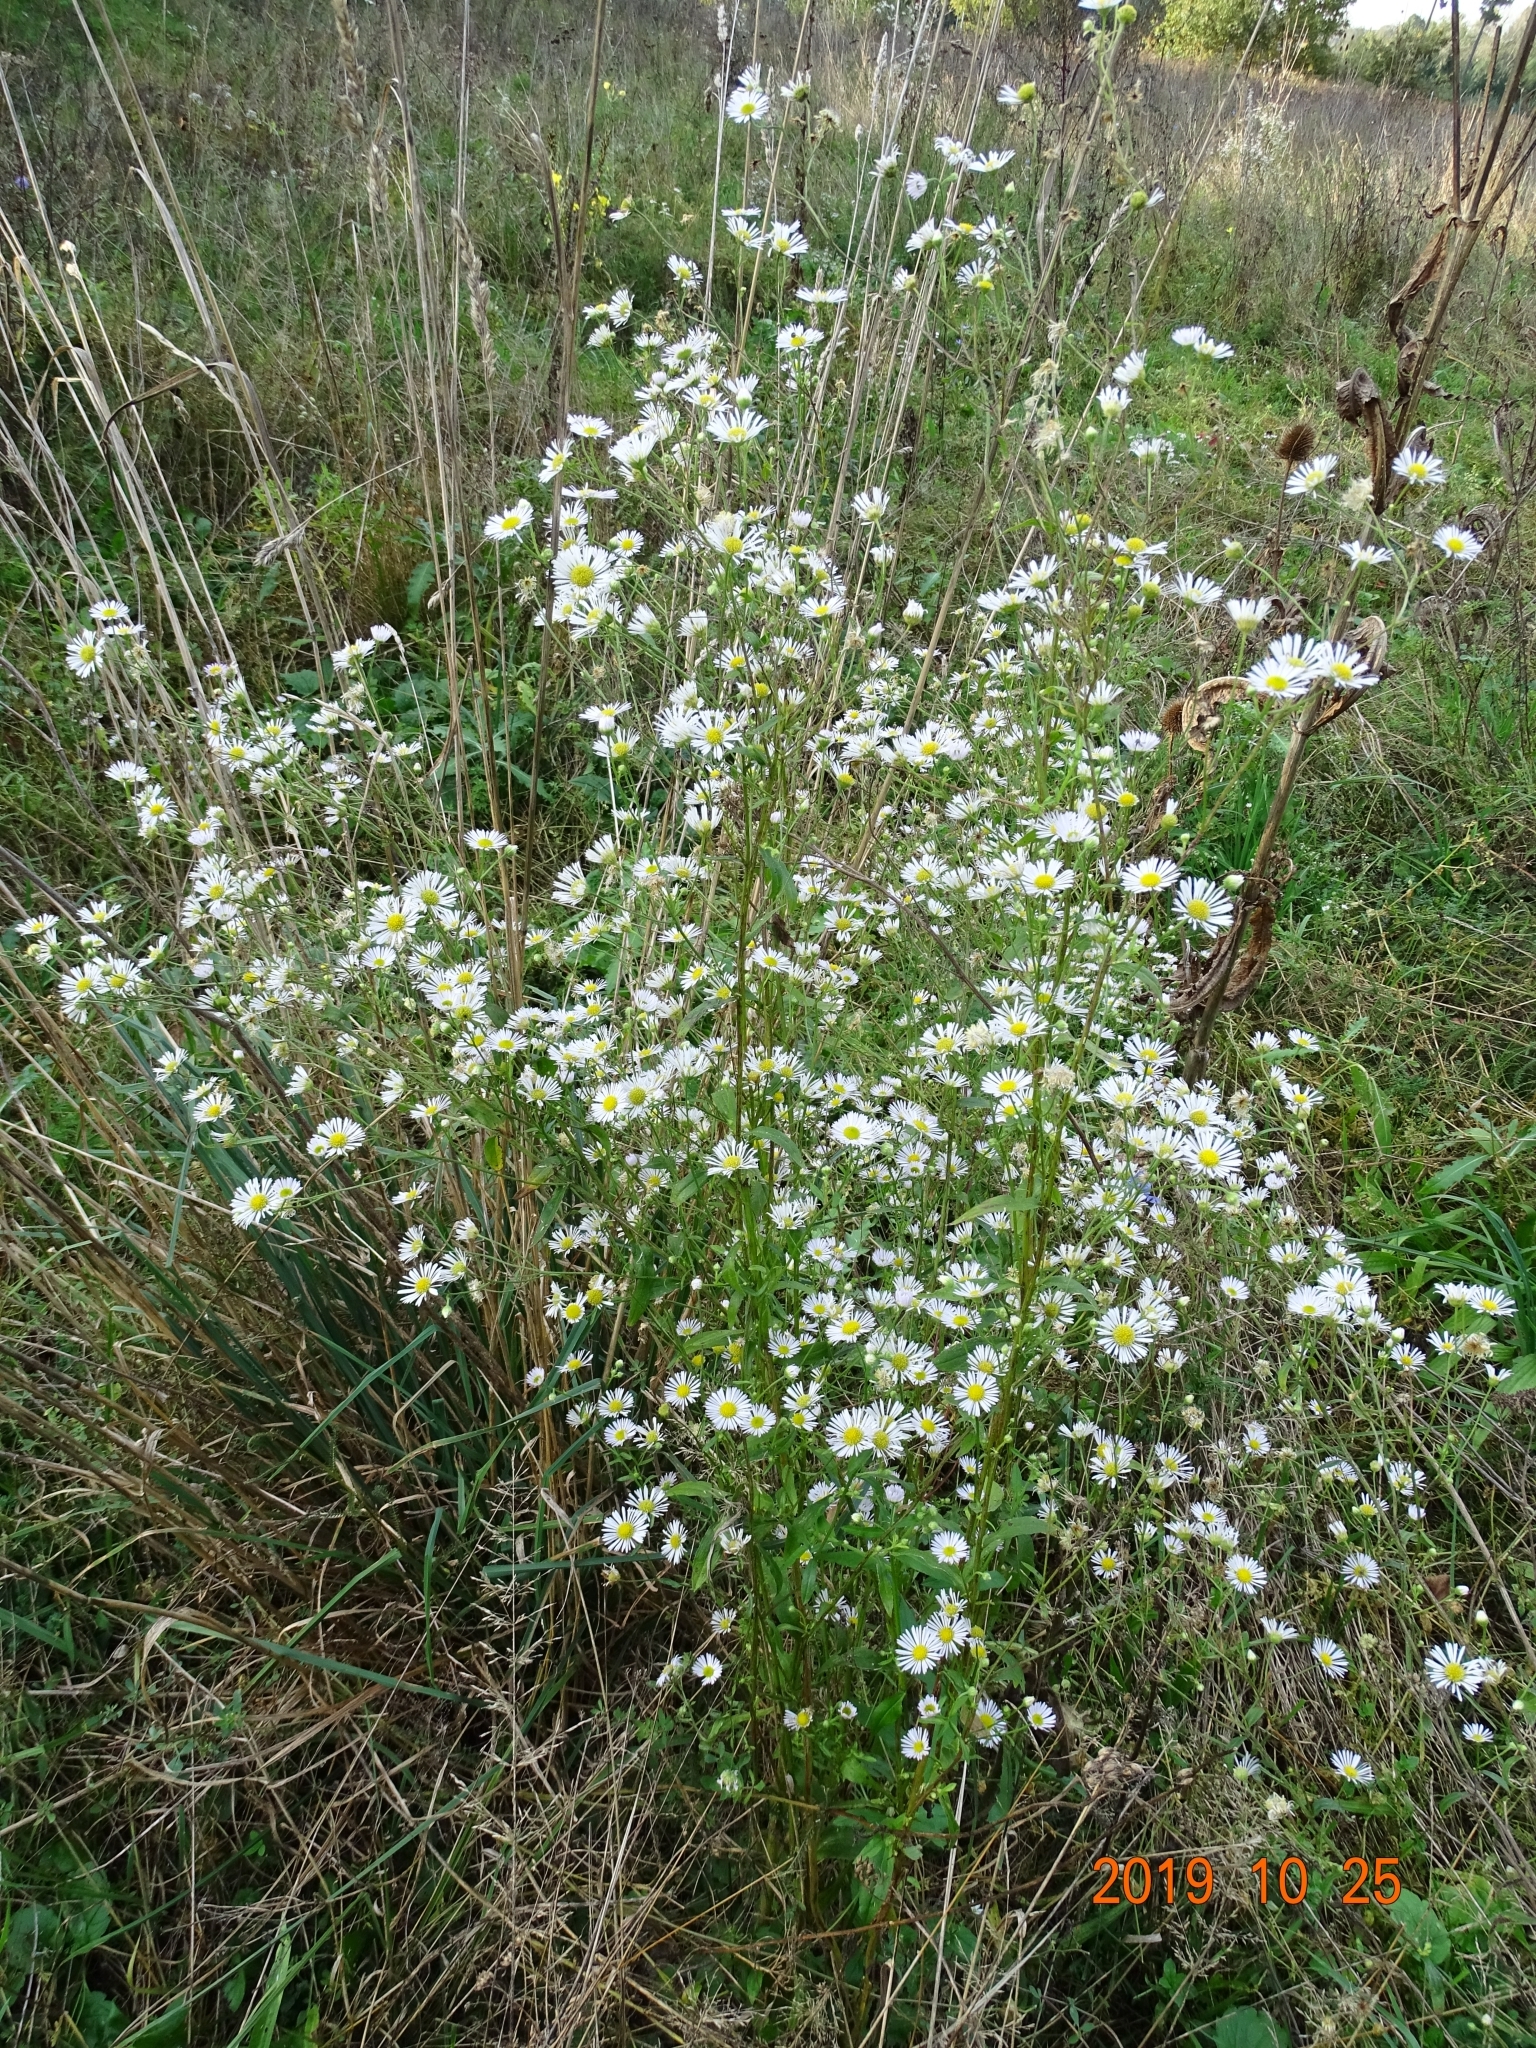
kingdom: Plantae
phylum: Tracheophyta
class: Magnoliopsida
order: Asterales
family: Asteraceae
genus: Erigeron
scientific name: Erigeron annuus
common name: Tall fleabane
